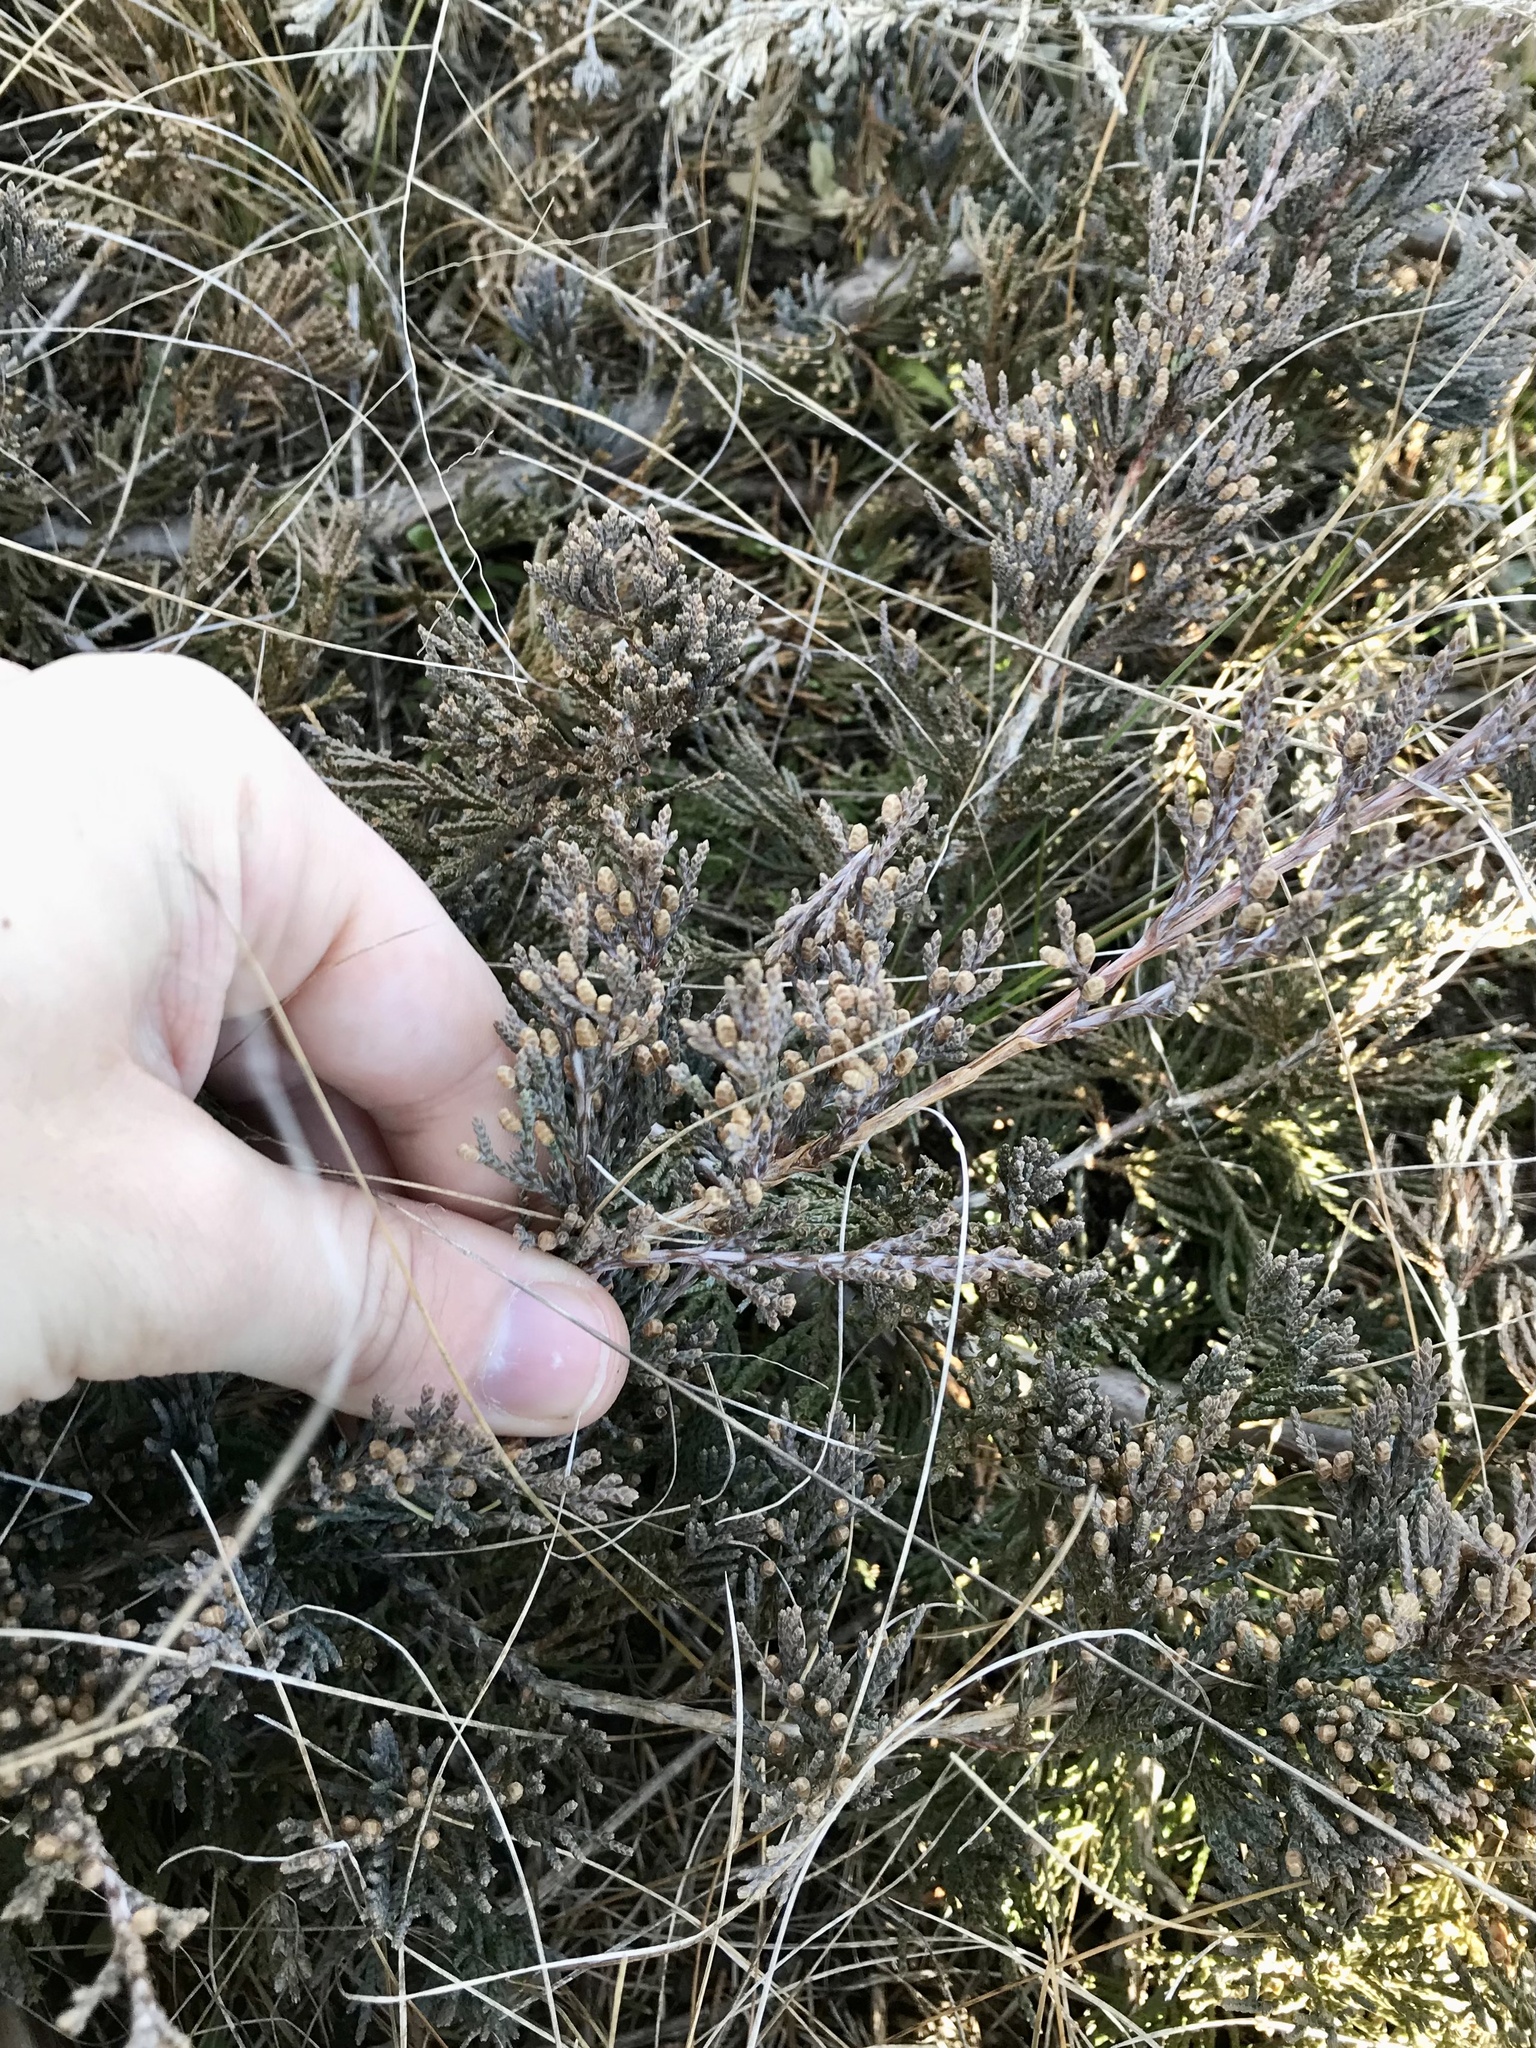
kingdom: Plantae
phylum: Tracheophyta
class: Pinopsida
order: Pinales
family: Cupressaceae
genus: Juniperus
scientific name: Juniperus horizontalis
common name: Creeping juniper
